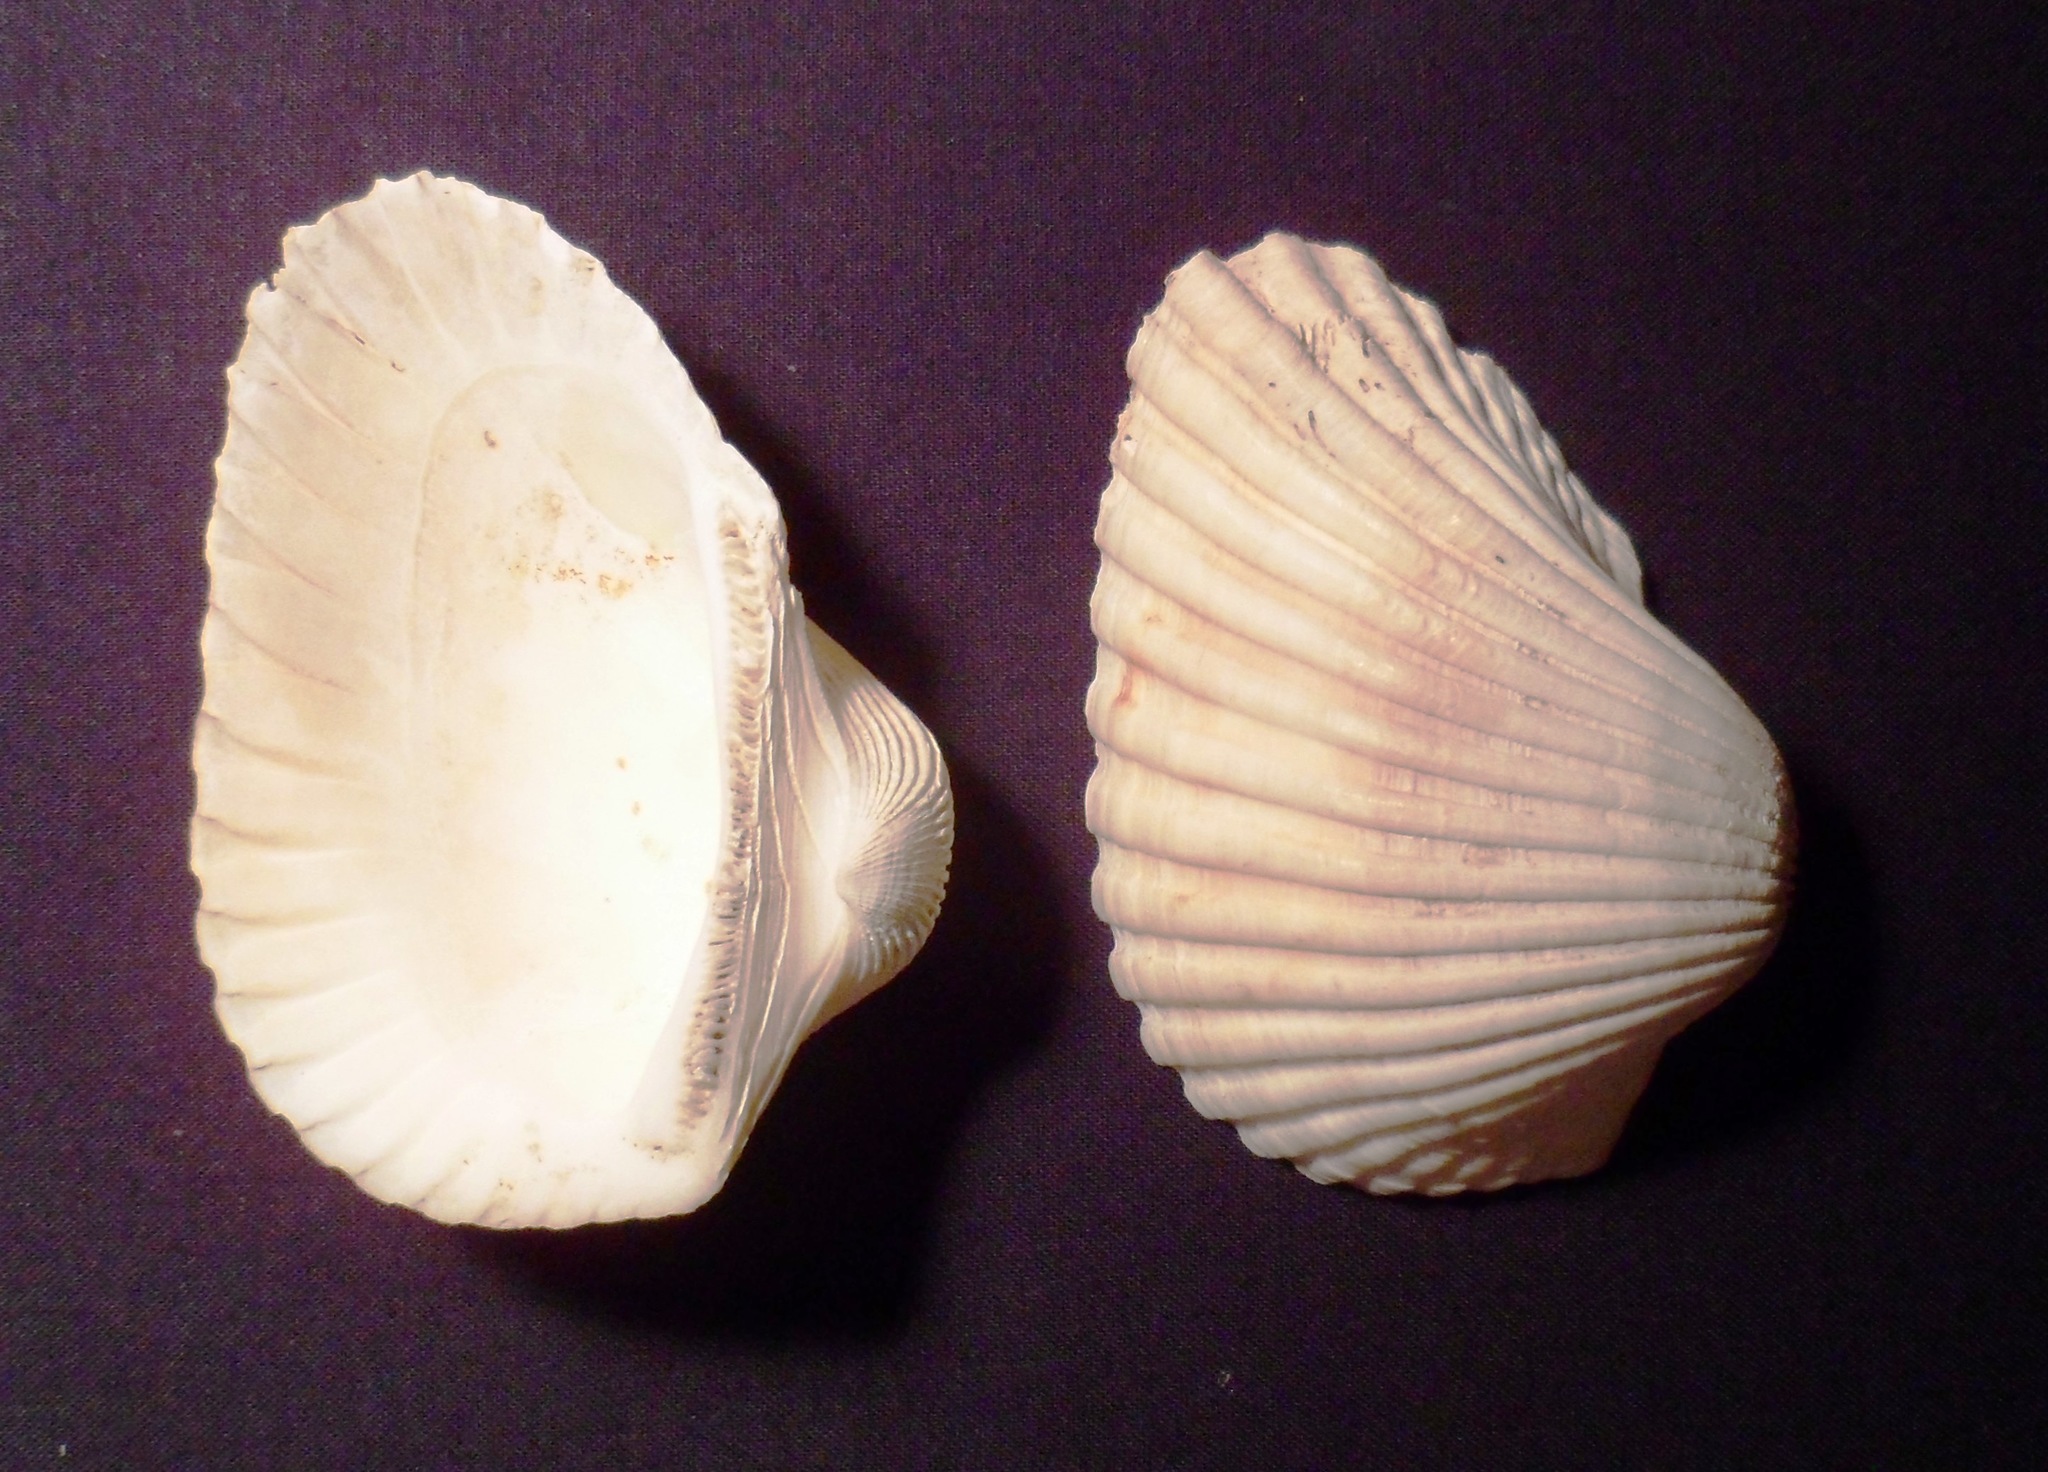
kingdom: Animalia
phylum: Mollusca
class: Bivalvia
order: Arcida
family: Arcidae
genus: Anadara
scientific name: Anadara tuberculosa
